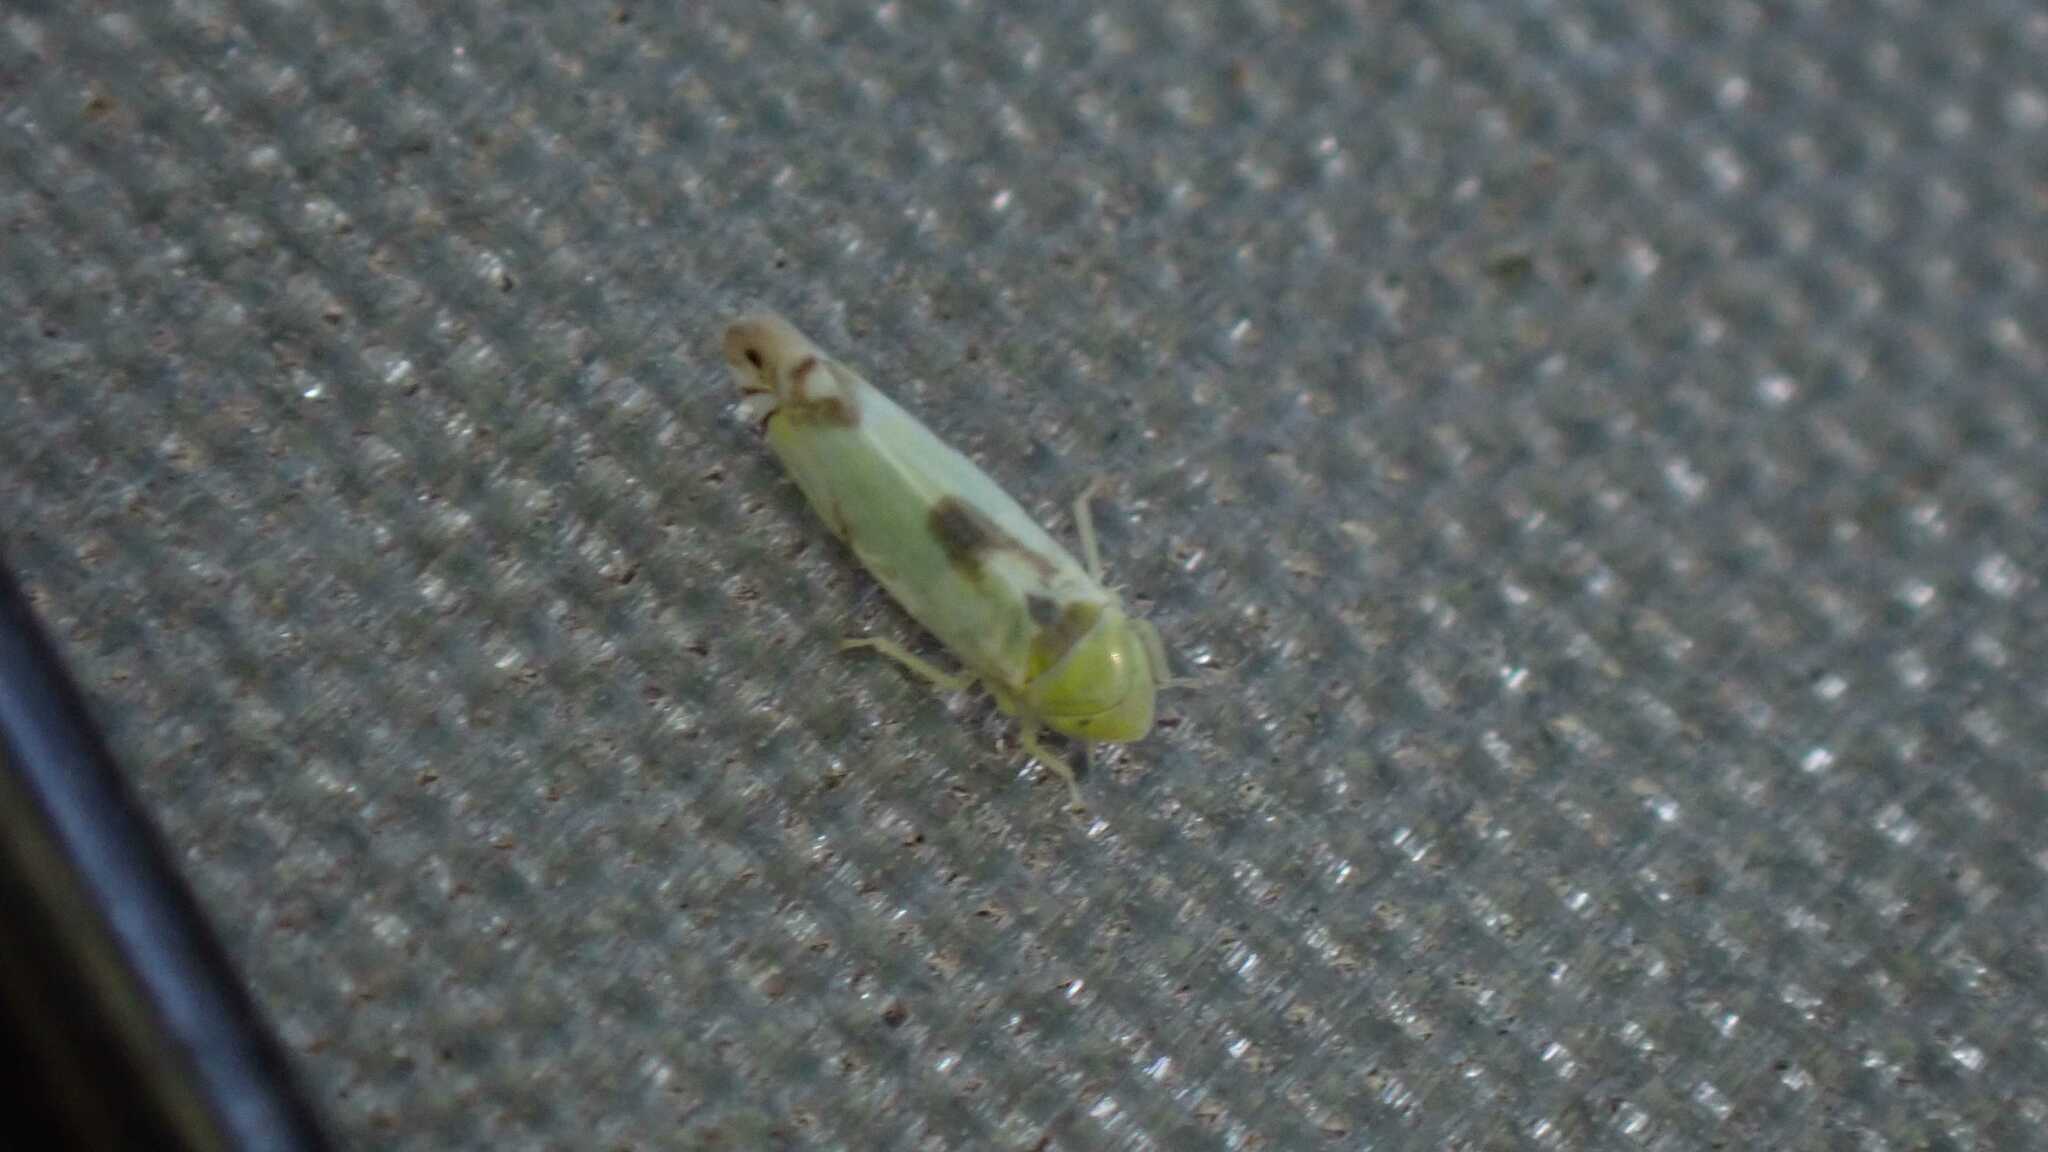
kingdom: Animalia
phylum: Arthropoda
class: Insecta
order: Hemiptera
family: Cicadellidae
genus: Zyginella
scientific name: Zyginella pulchra
